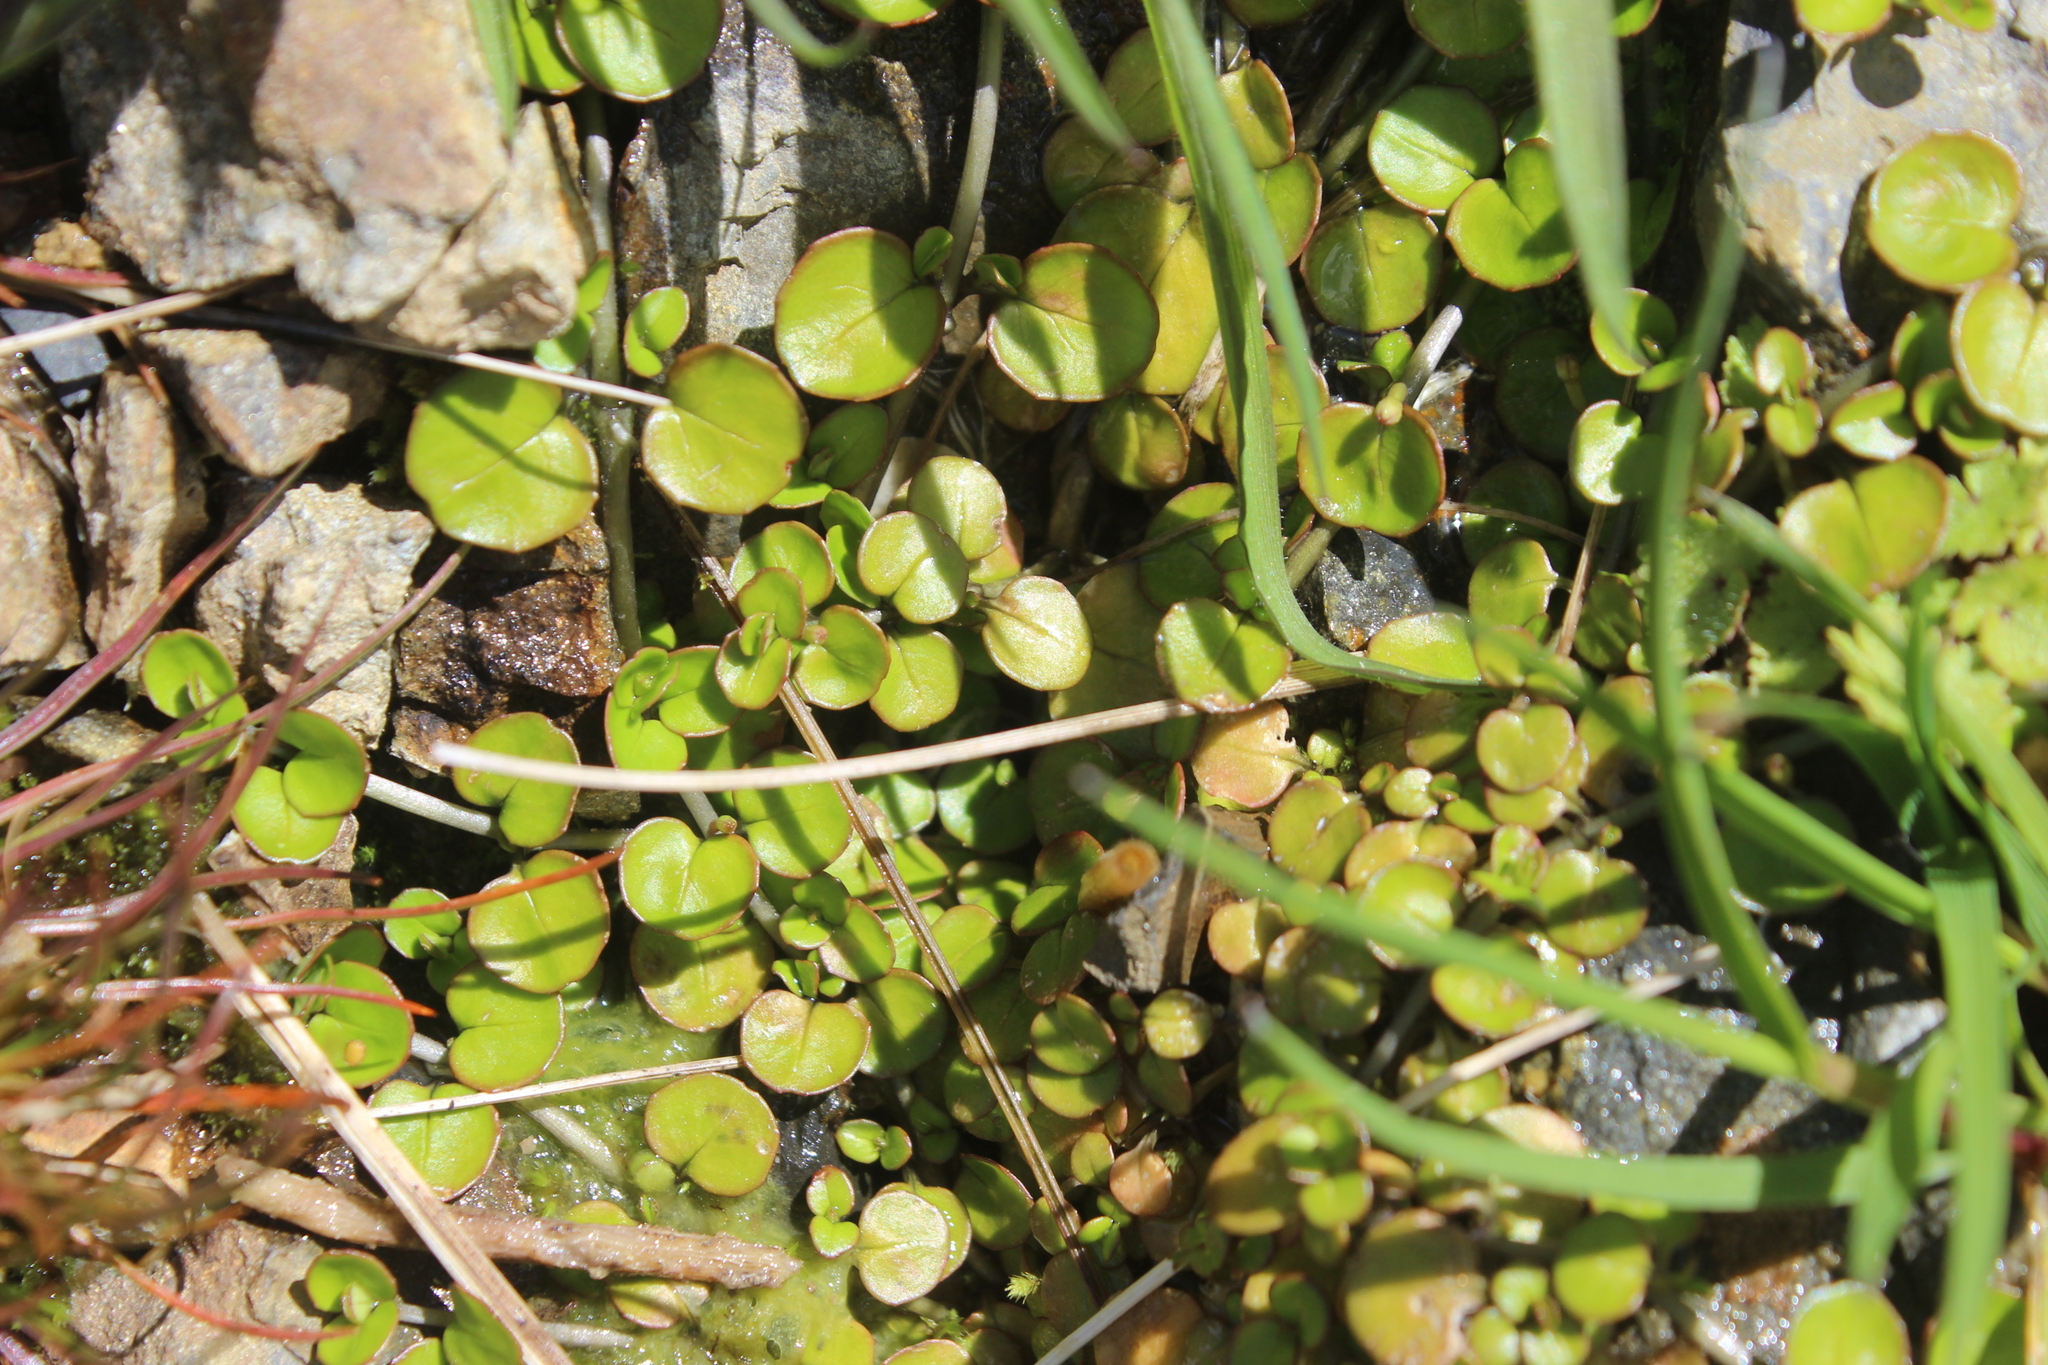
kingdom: Plantae
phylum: Tracheophyta
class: Magnoliopsida
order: Myrtales
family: Onagraceae
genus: Epilobium
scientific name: Epilobium nummularifolium
